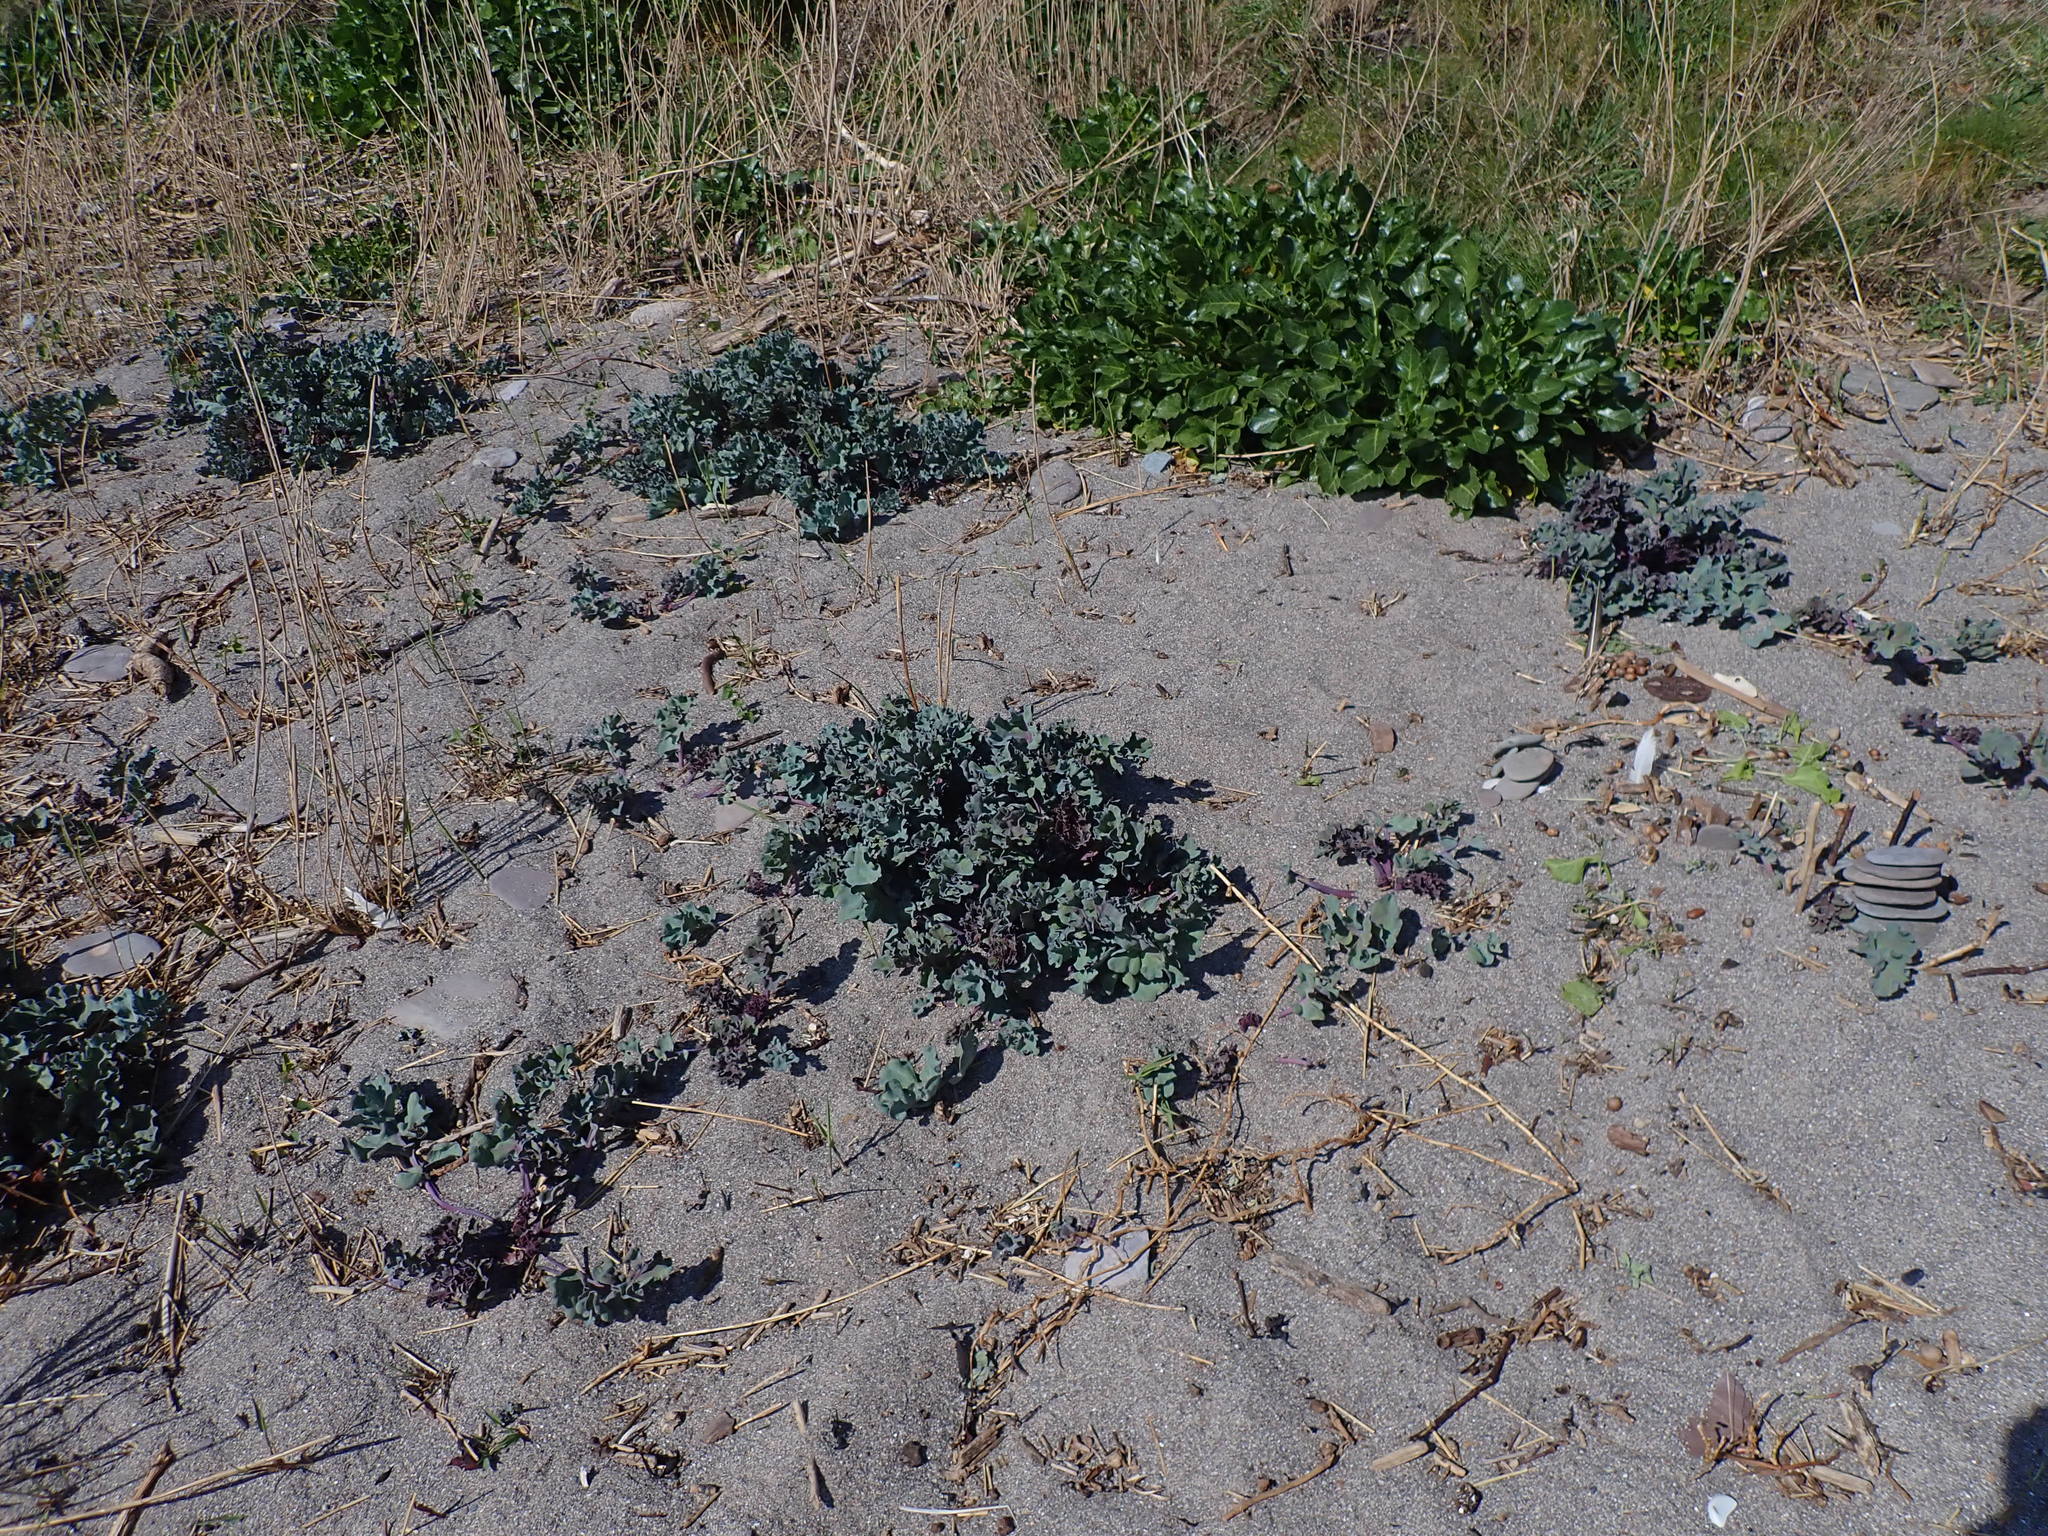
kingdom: Plantae
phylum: Tracheophyta
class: Magnoliopsida
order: Brassicales
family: Brassicaceae
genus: Crambe
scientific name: Crambe maritima
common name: Sea-kale
